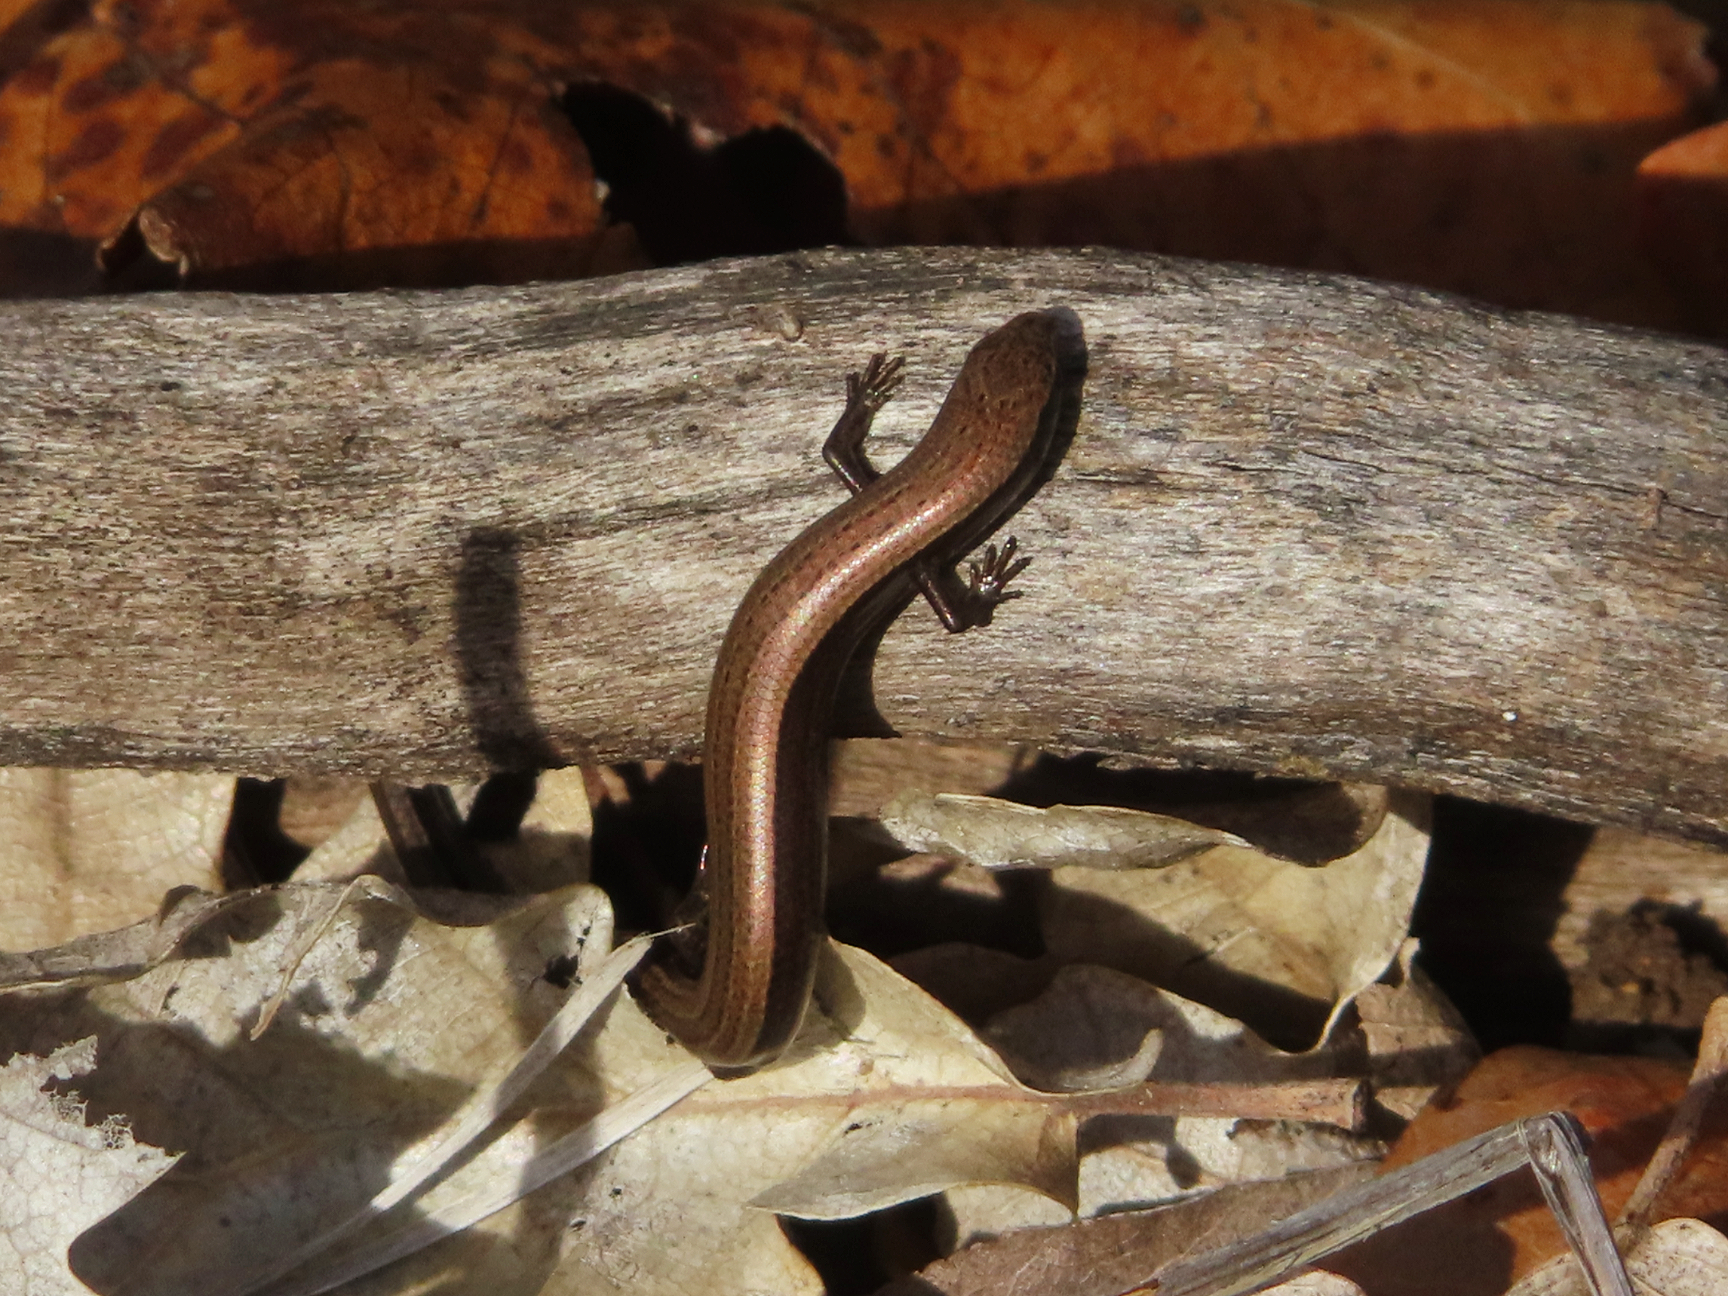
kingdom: Animalia
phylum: Chordata
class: Squamata
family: Scincidae
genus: Ablepharus
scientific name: Ablepharus kitaibelii
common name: Juniper skink
